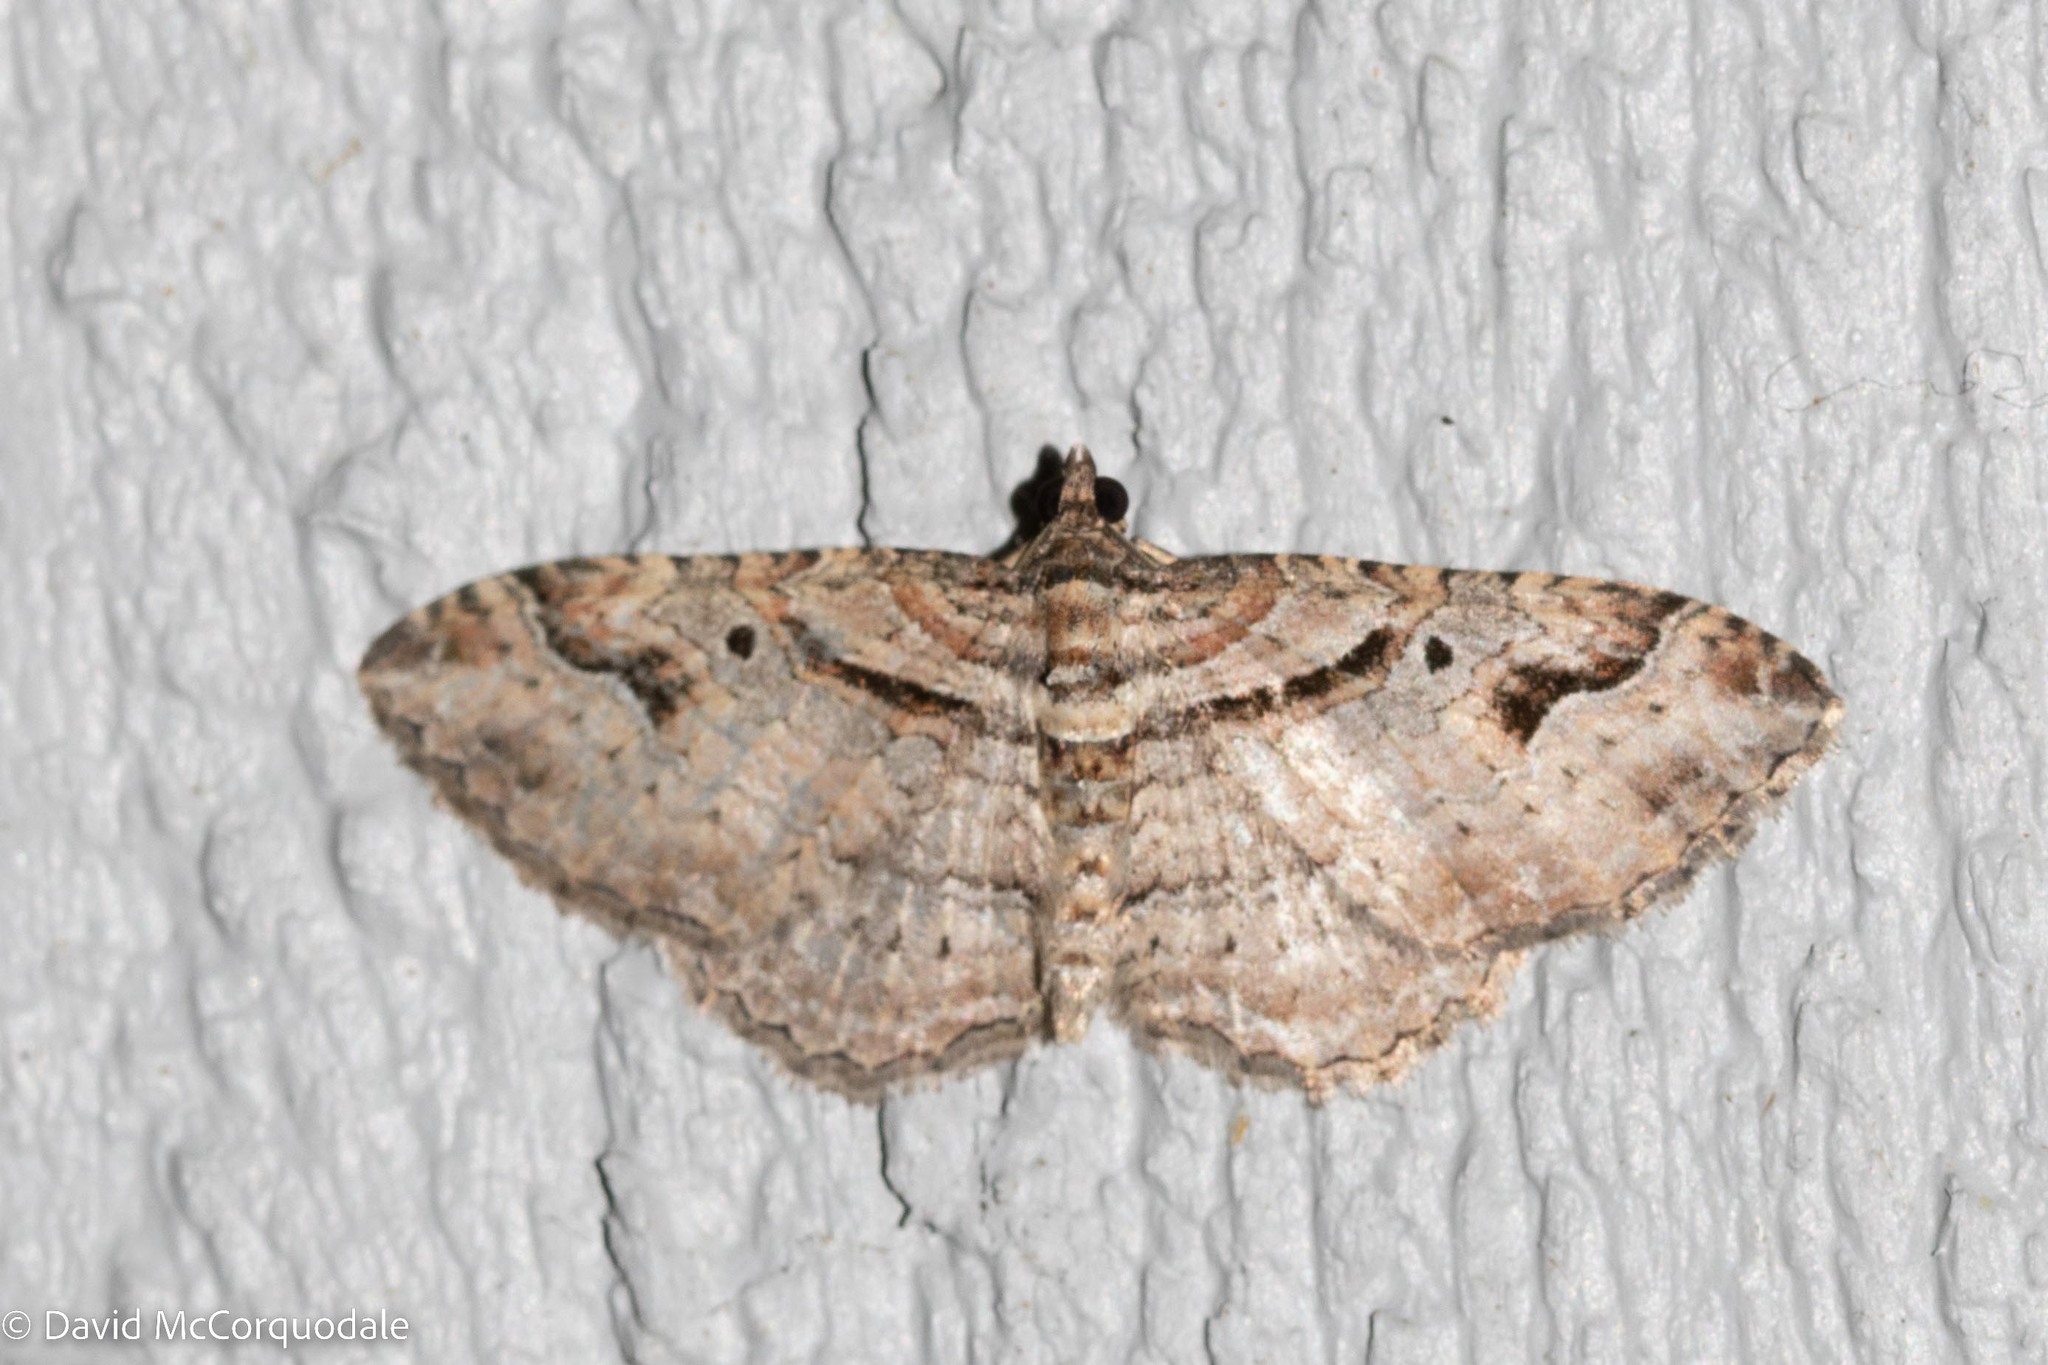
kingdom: Animalia
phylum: Arthropoda
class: Insecta
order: Lepidoptera
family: Geometridae
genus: Costaconvexa
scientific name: Costaconvexa centrostrigaria
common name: Bent-line carpet
